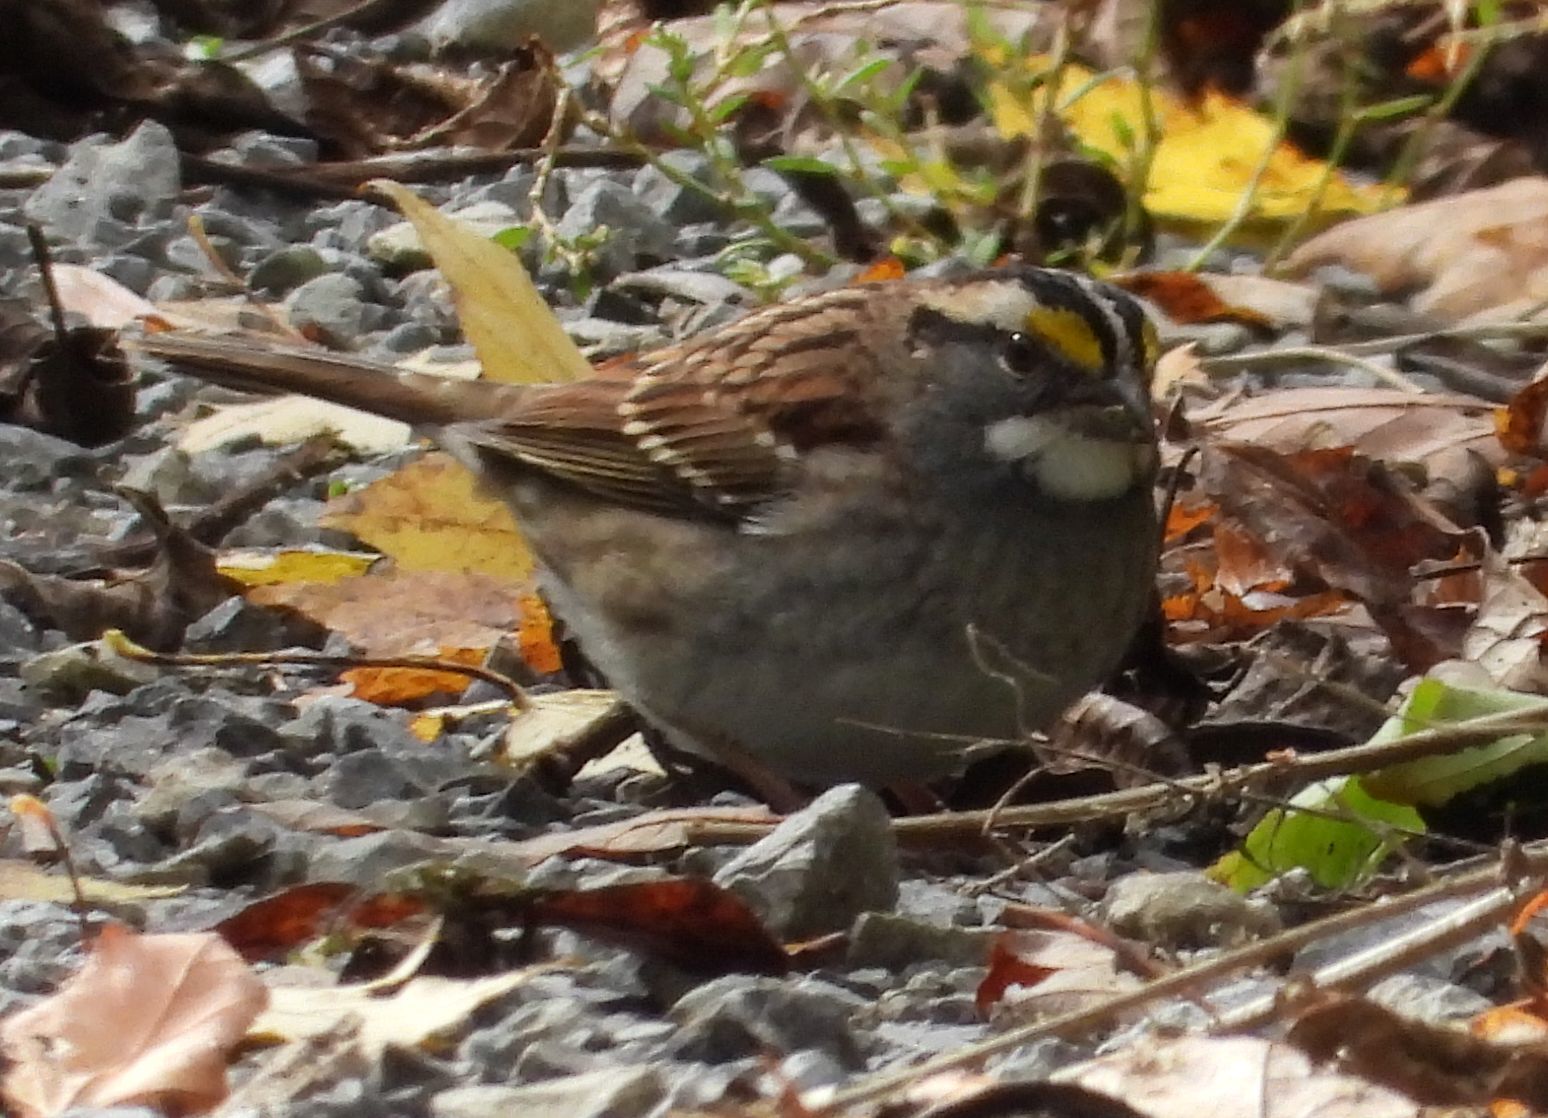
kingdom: Animalia
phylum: Chordata
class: Aves
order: Passeriformes
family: Passerellidae
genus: Zonotrichia
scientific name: Zonotrichia albicollis
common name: White-throated sparrow
